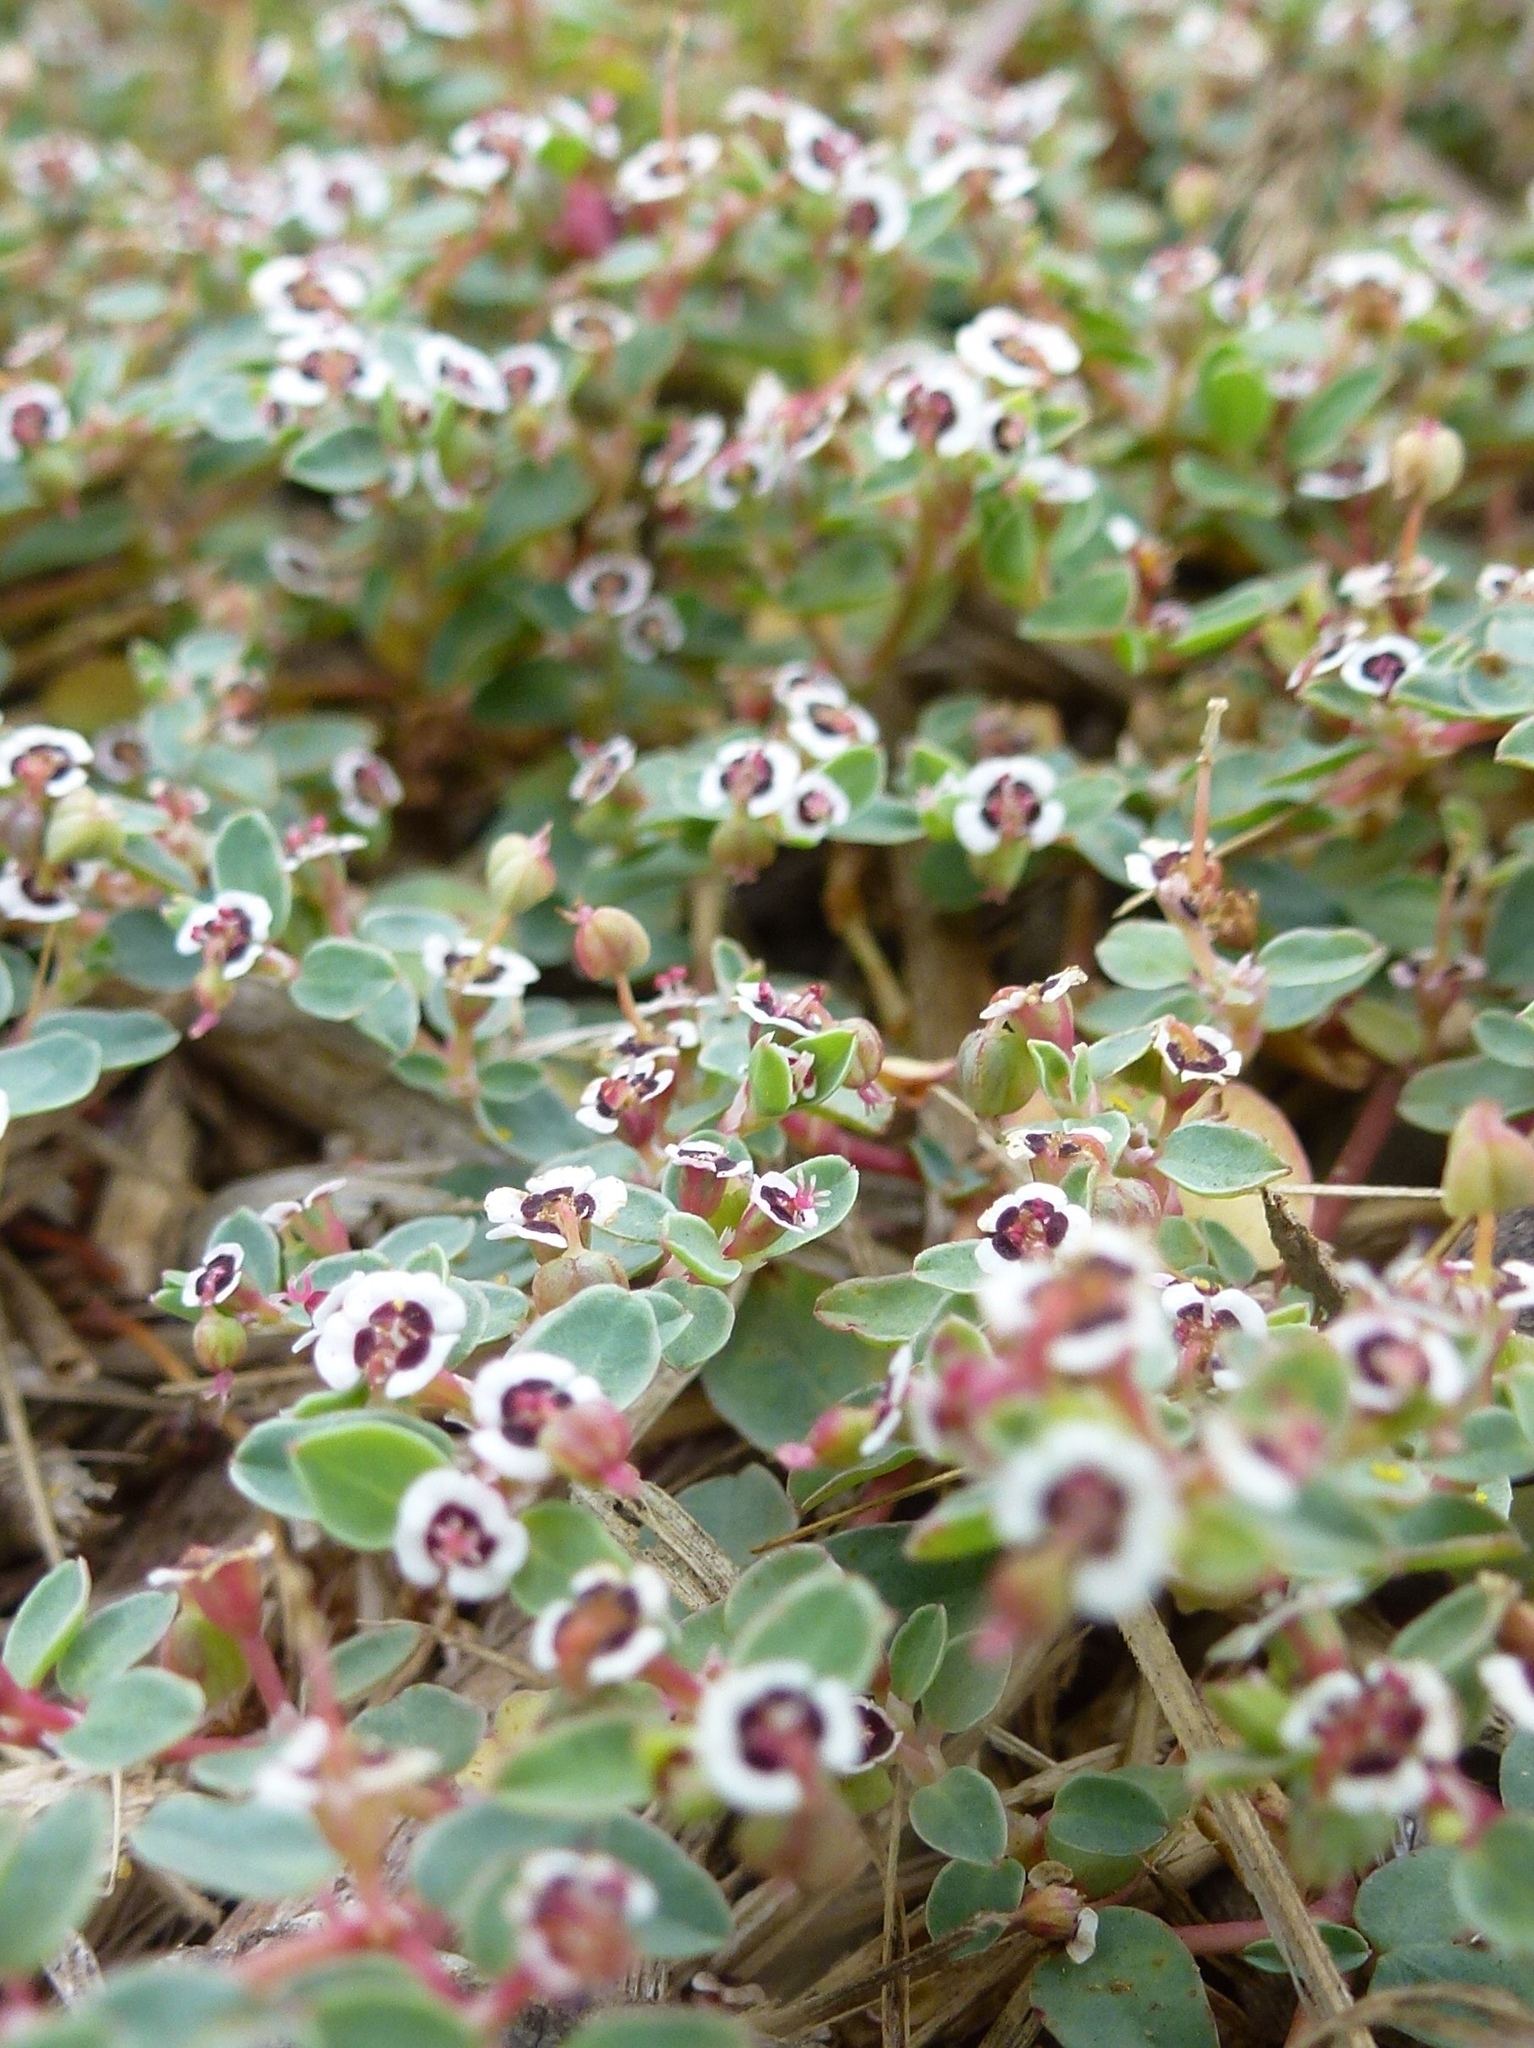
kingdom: Plantae
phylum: Tracheophyta
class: Magnoliopsida
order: Malpighiales
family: Euphorbiaceae
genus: Euphorbia
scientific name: Euphorbia albomarginata
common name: Whitemargin sandmat
